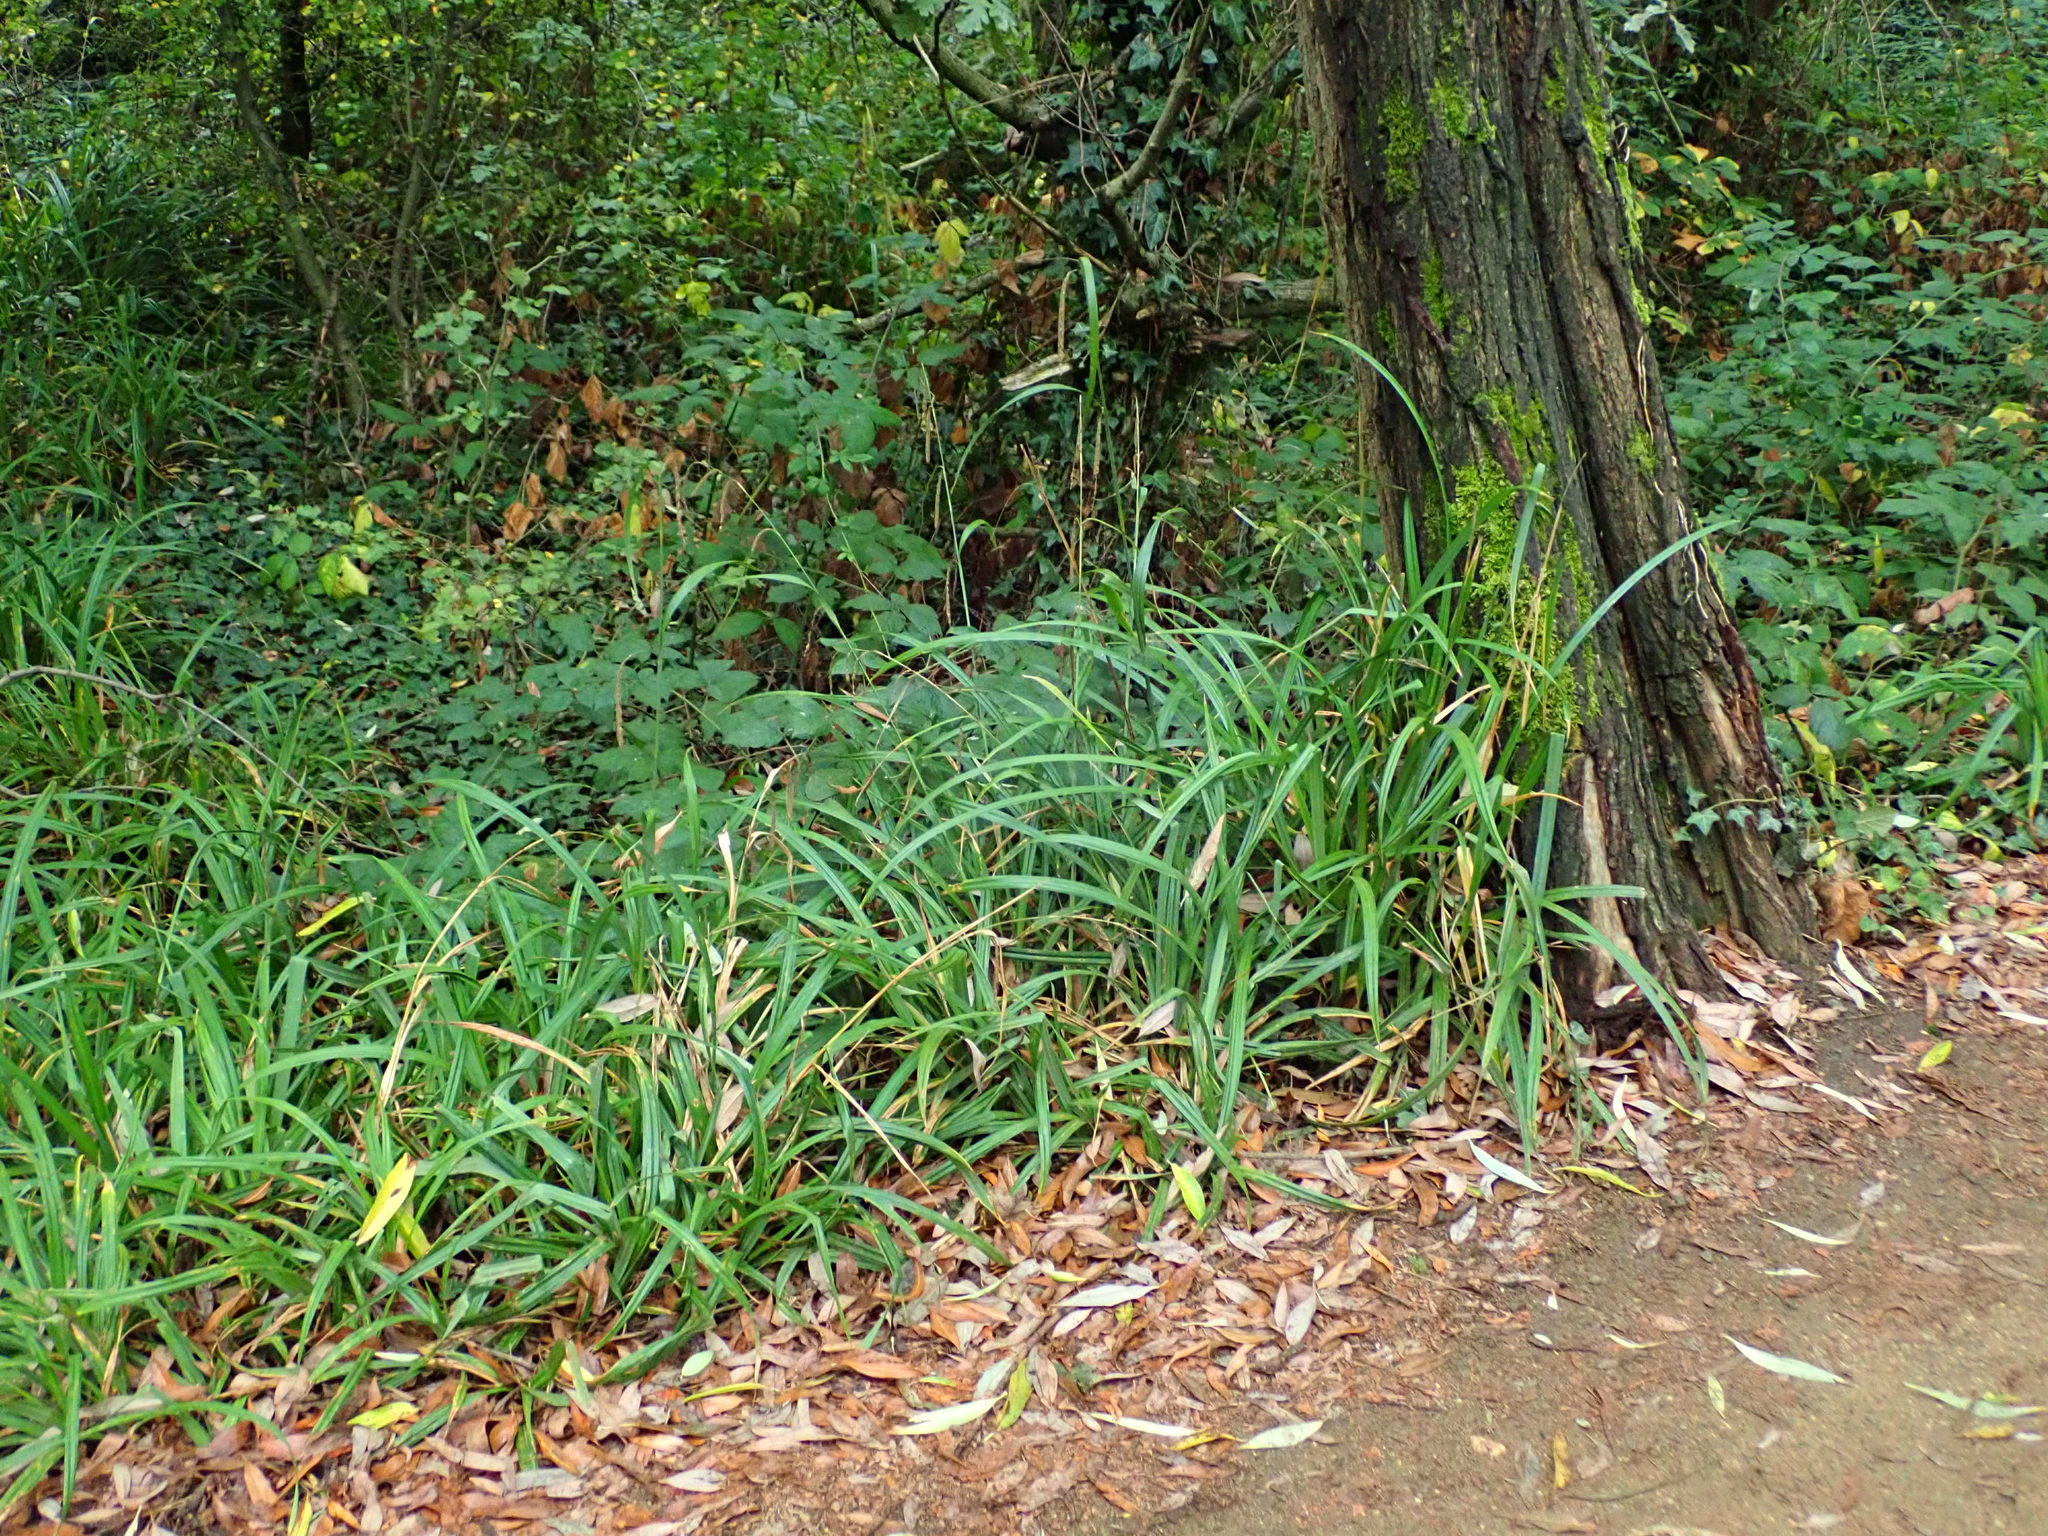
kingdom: Plantae
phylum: Tracheophyta
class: Liliopsida
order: Poales
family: Cyperaceae
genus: Carex
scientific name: Carex pendula
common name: Pendulous sedge
